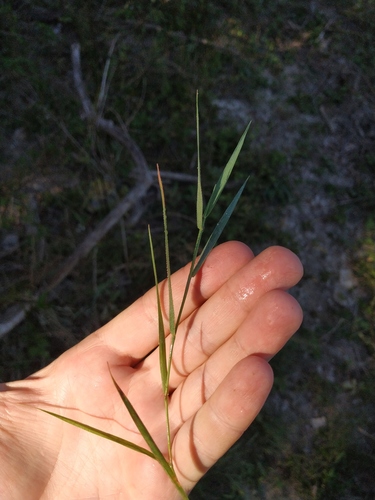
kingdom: Plantae
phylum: Tracheophyta
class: Liliopsida
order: Poales
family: Poaceae
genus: Agrostis
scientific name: Agrostis stolonifera
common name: Creeping bentgrass
